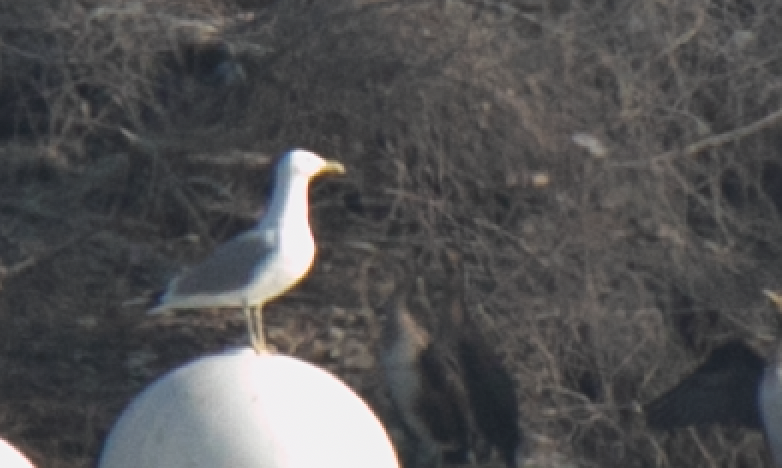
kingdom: Animalia
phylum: Chordata
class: Aves
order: Charadriiformes
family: Laridae
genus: Larus
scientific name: Larus michahellis
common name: Yellow-legged gull
